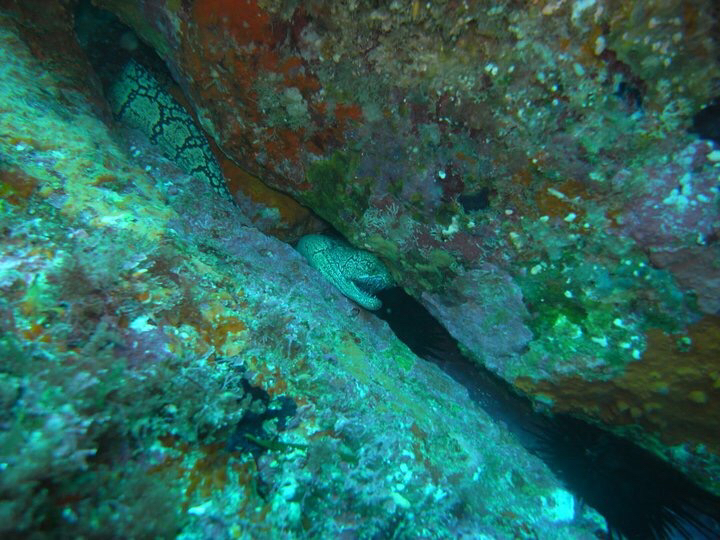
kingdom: Animalia
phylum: Chordata
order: Anguilliformes
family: Muraenidae
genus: Enchelycore
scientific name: Enchelycore ramosa
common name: Mosaic moray
